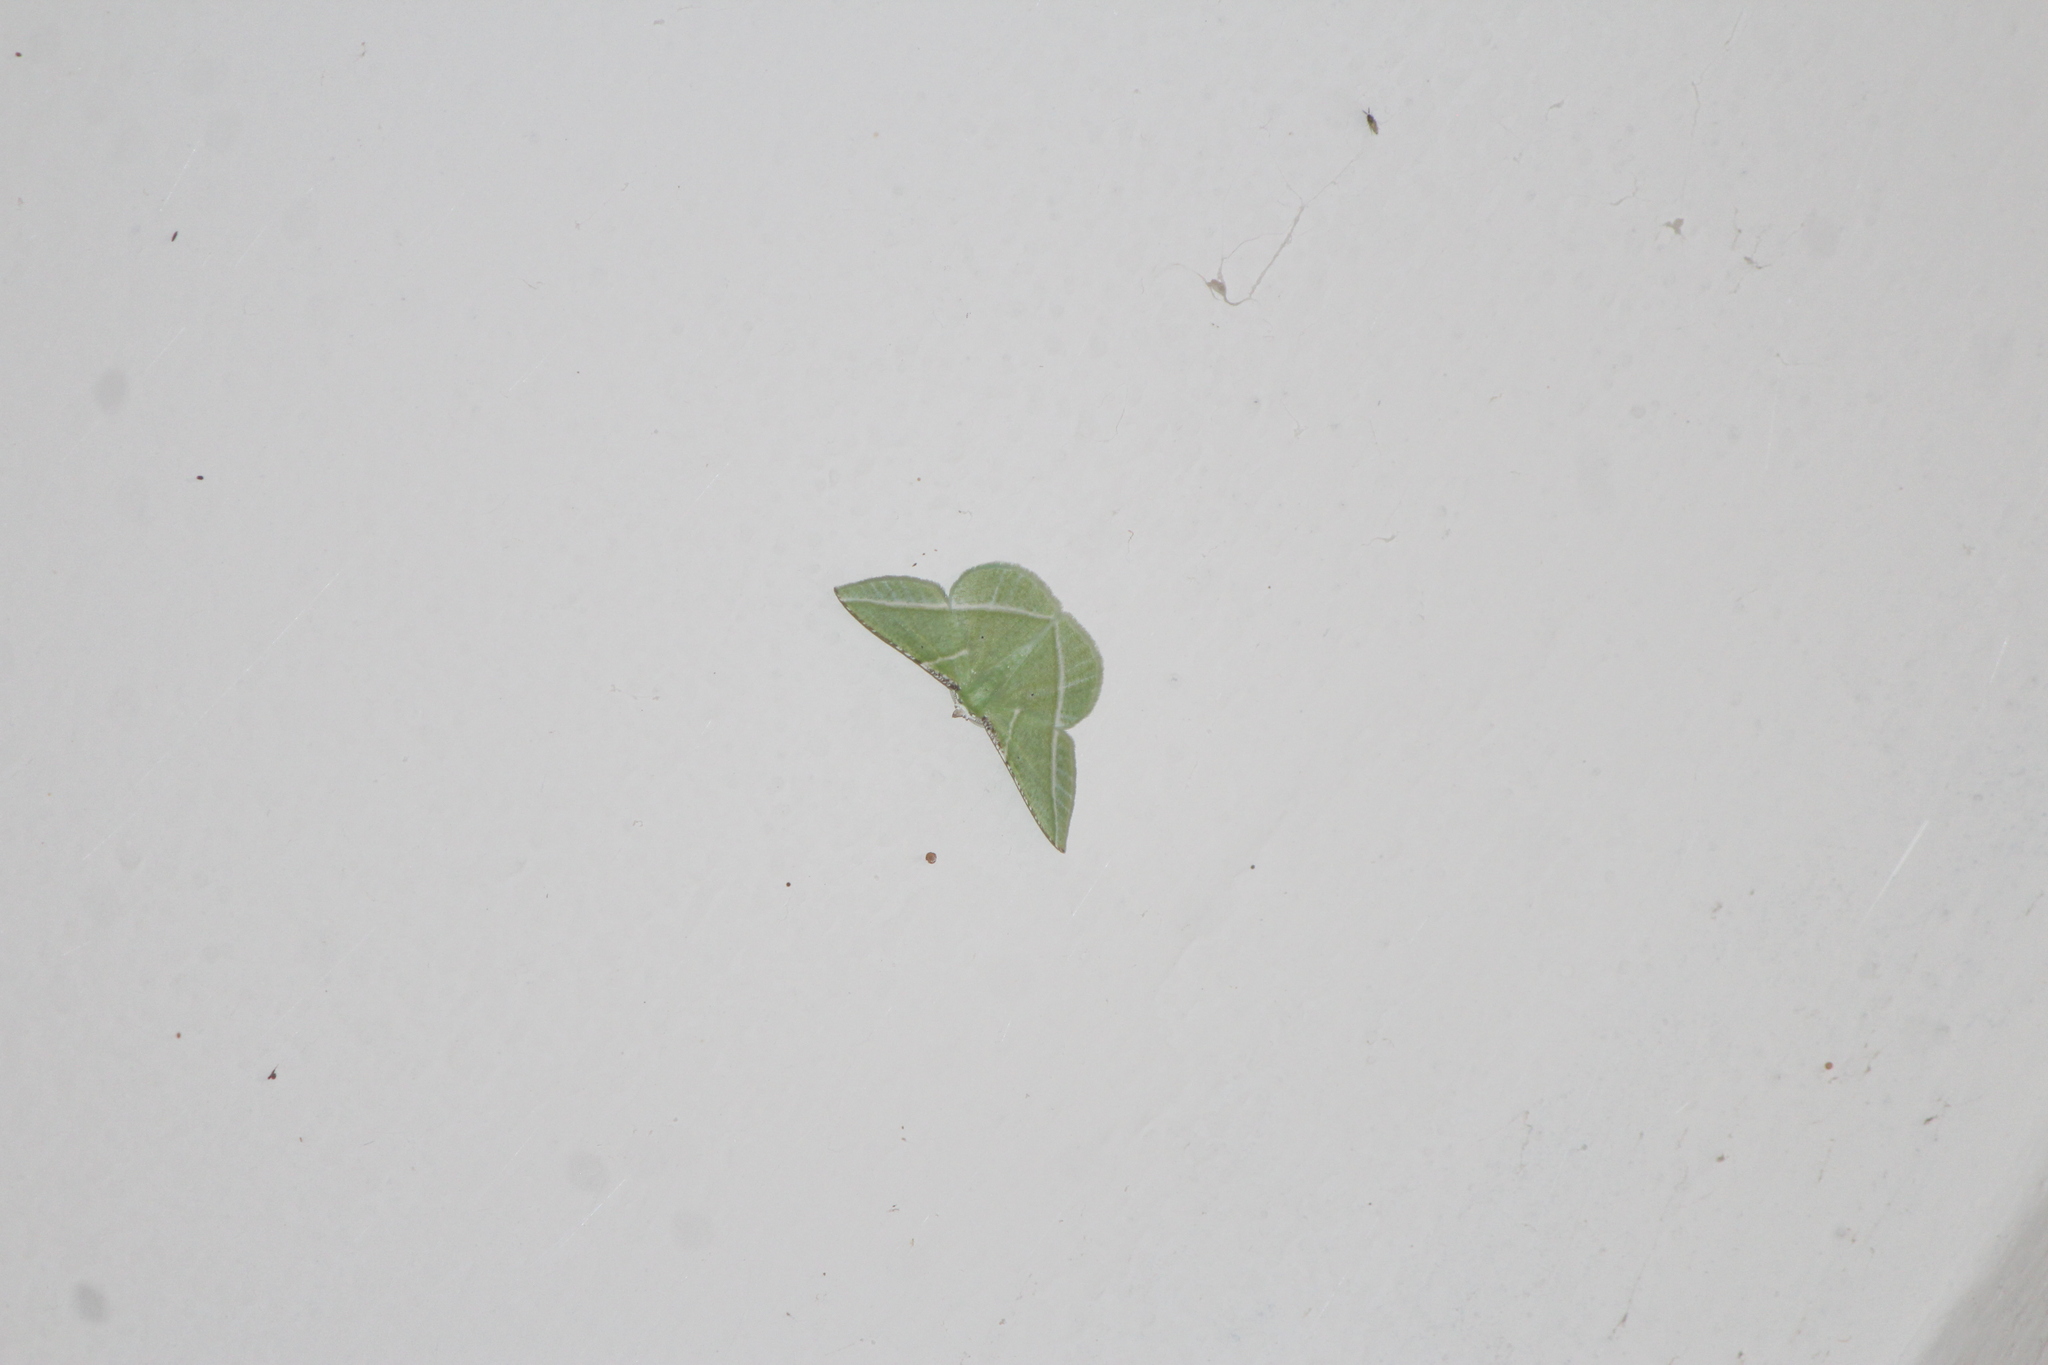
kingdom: Animalia
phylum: Arthropoda
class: Insecta
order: Lepidoptera
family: Geometridae
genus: Dichorda
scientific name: Dichorda illustraria
